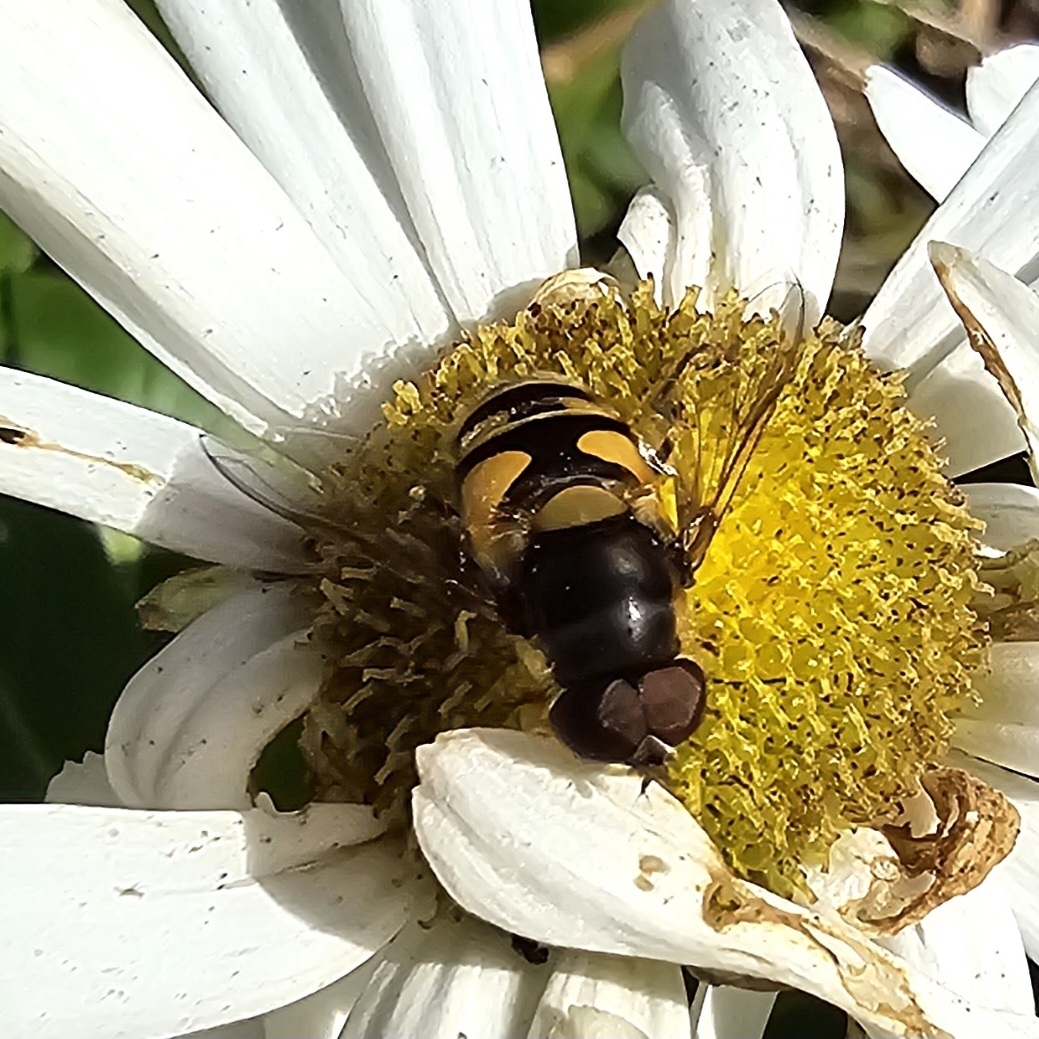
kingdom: Animalia
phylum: Arthropoda
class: Insecta
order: Diptera
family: Syrphidae
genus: Eristalis
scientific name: Eristalis transversa
